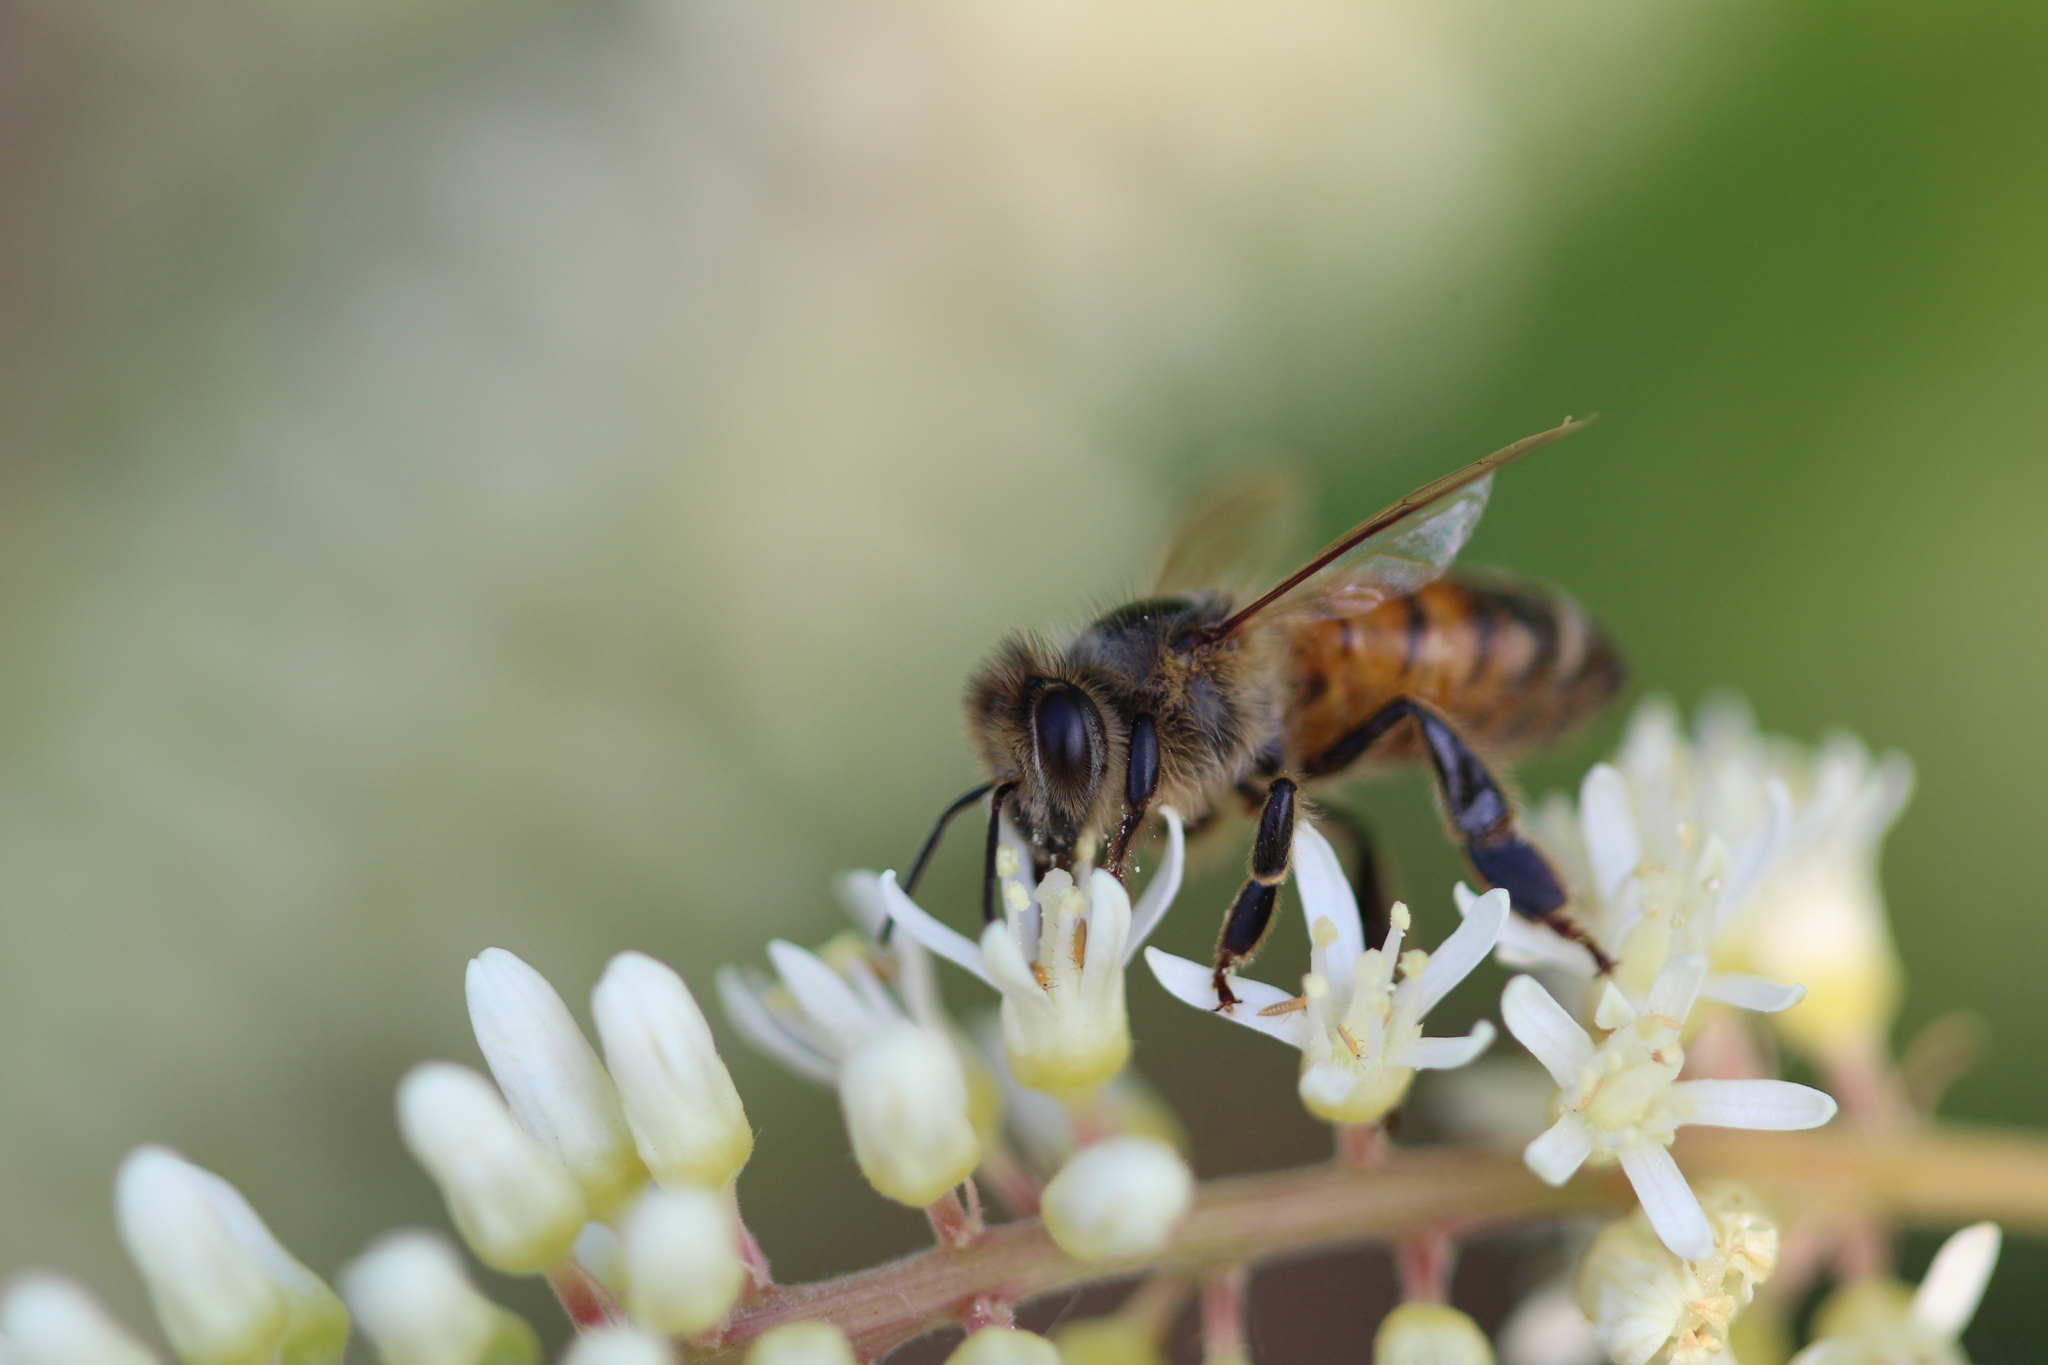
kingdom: Animalia
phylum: Arthropoda
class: Insecta
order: Hymenoptera
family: Apidae
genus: Apis
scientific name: Apis mellifera
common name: Honey bee
